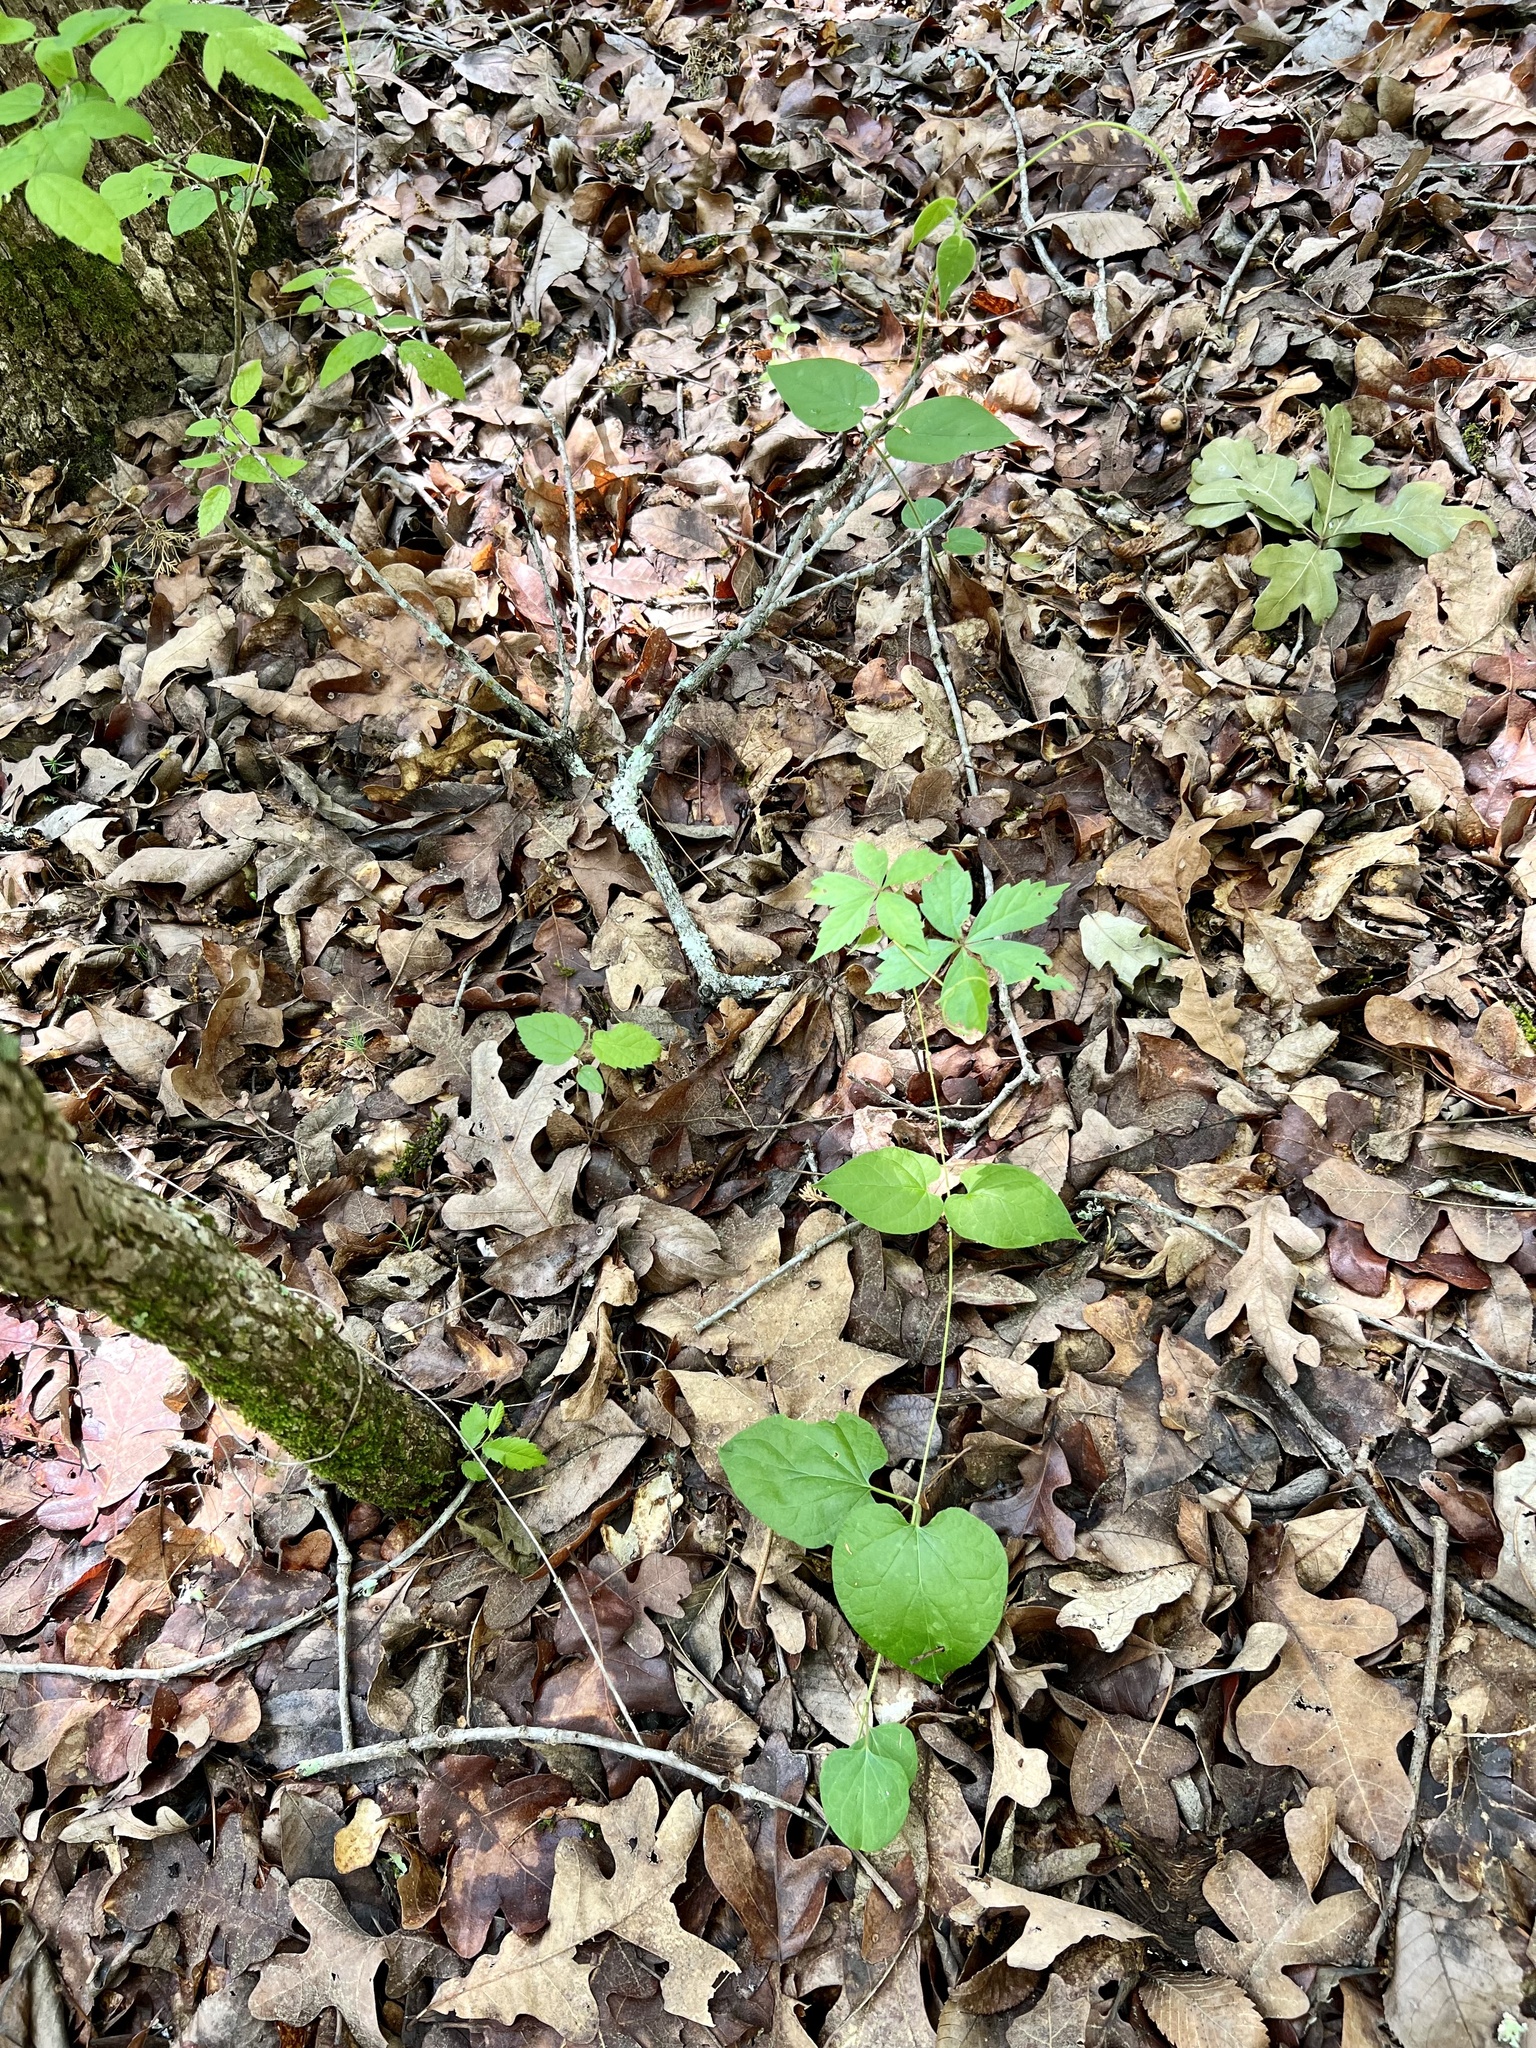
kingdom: Plantae
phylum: Tracheophyta
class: Magnoliopsida
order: Gentianales
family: Apocynaceae
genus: Matelea
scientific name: Matelea hirtelliflora
